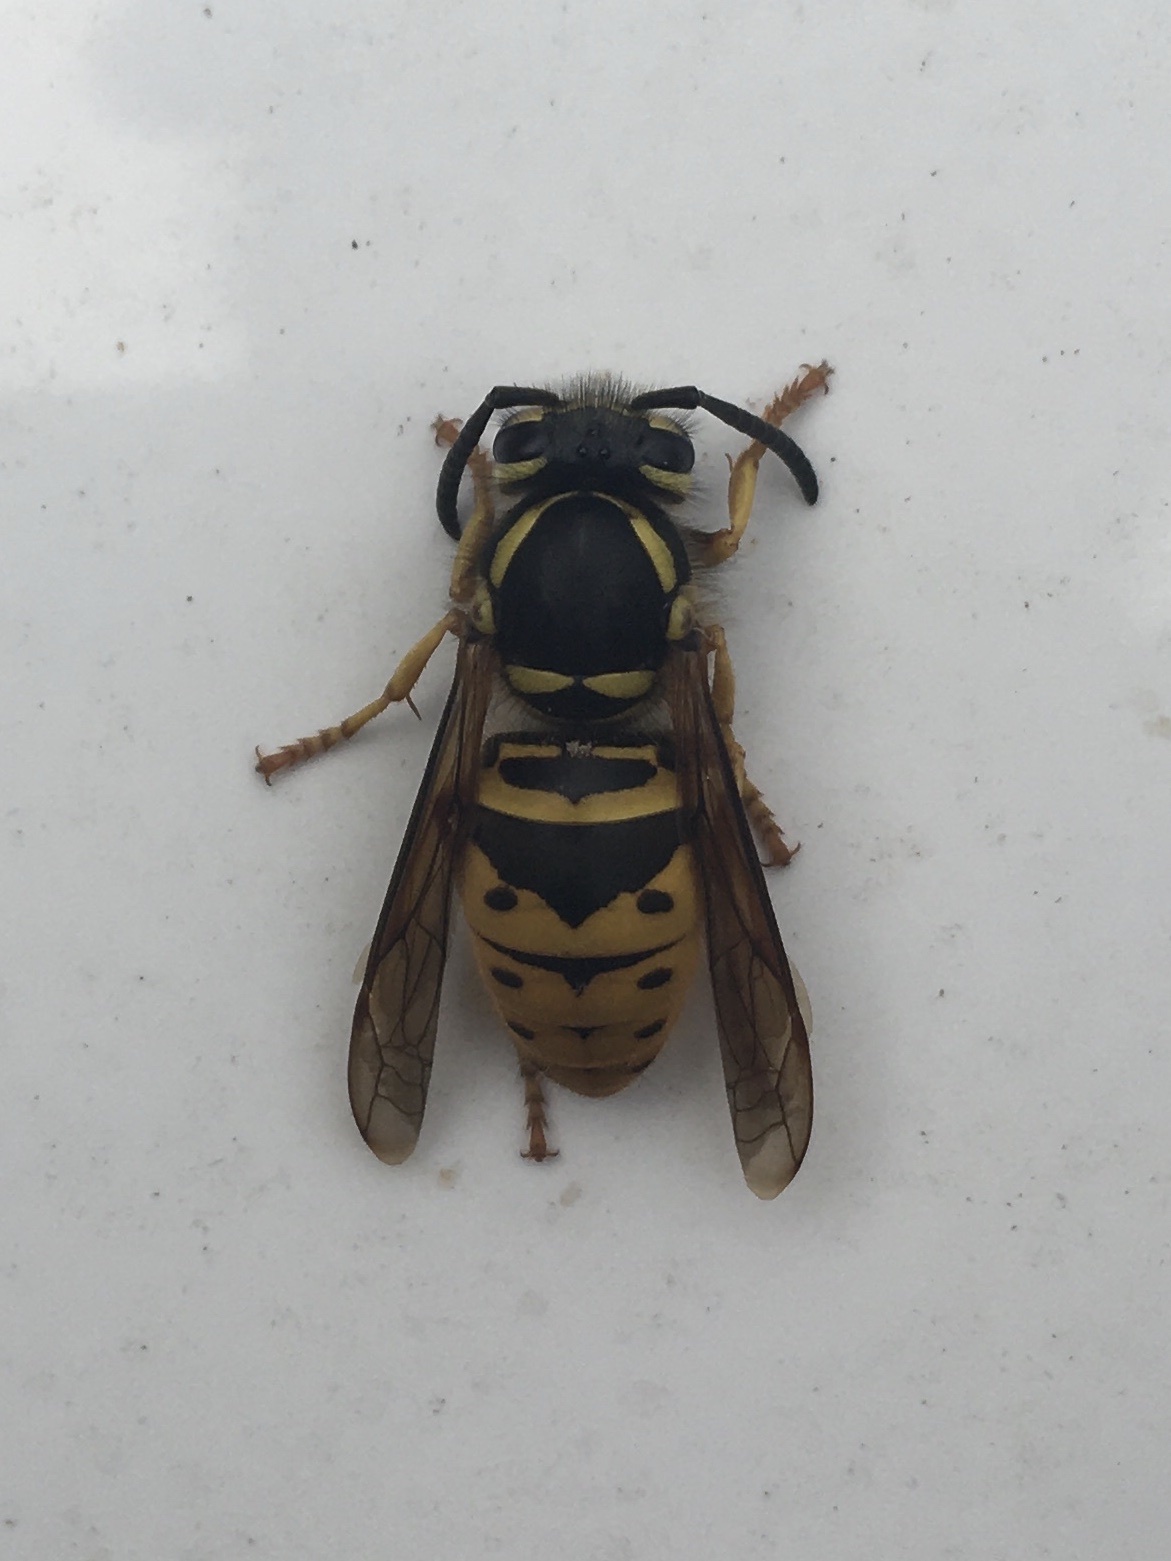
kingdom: Animalia
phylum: Arthropoda
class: Insecta
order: Hymenoptera
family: Vespidae
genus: Vespula
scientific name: Vespula maculifrons
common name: Eastern yellowjacket
